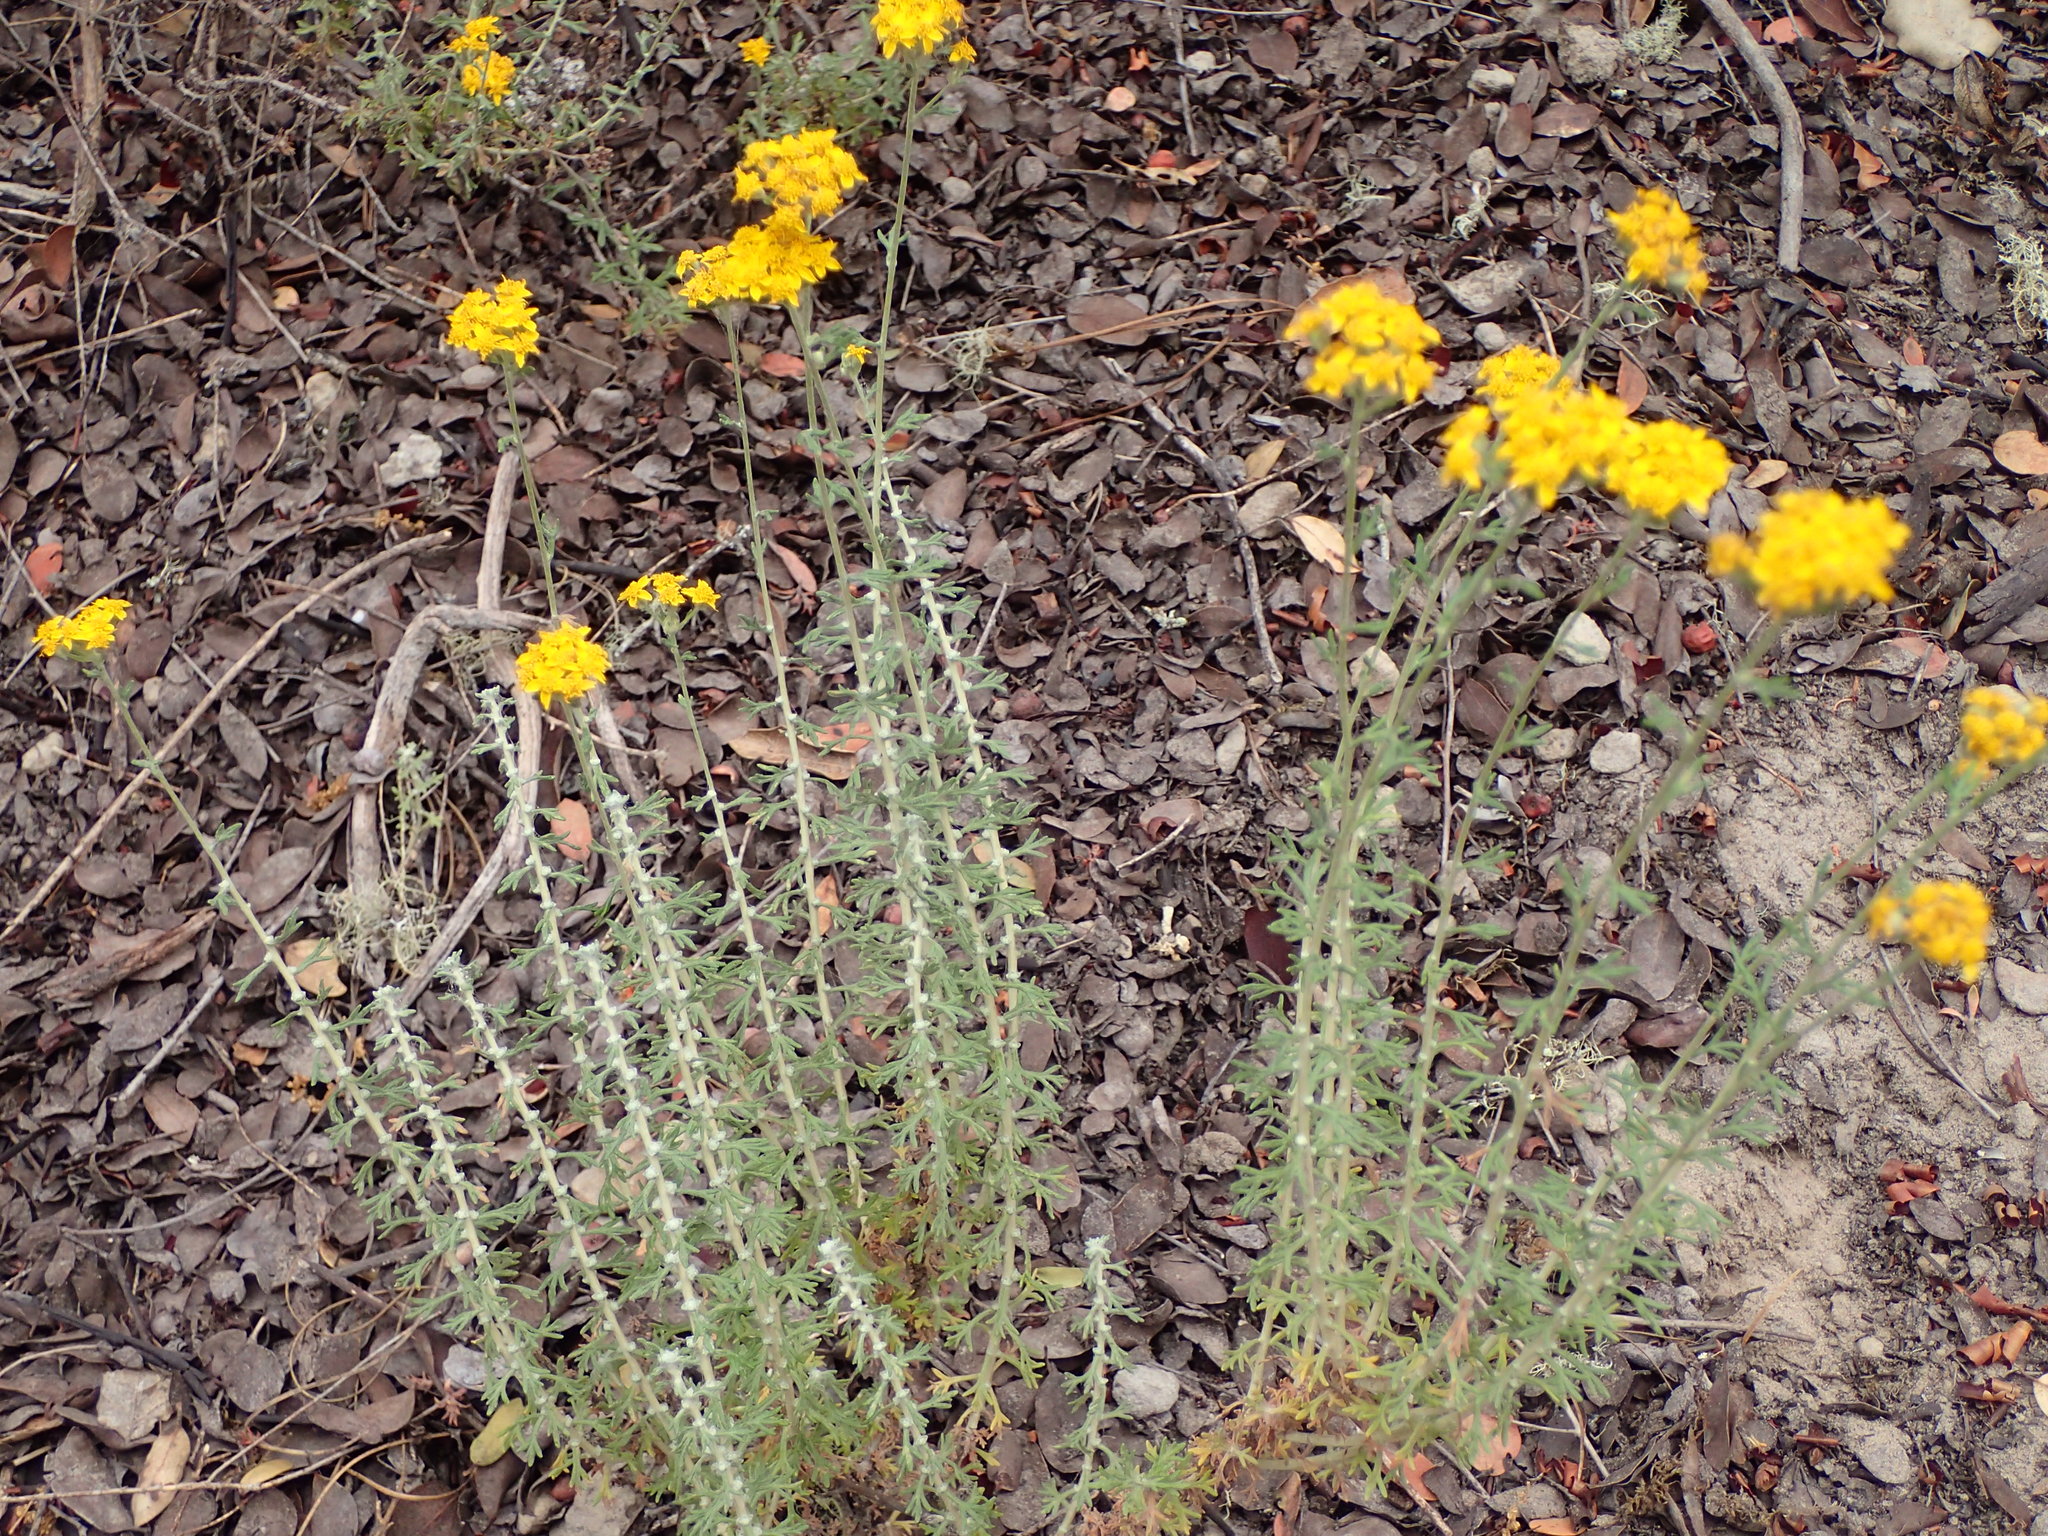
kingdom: Plantae
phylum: Tracheophyta
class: Magnoliopsida
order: Asterales
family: Asteraceae
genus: Eriophyllum
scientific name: Eriophyllum confertiflorum
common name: Golden-yarrow
